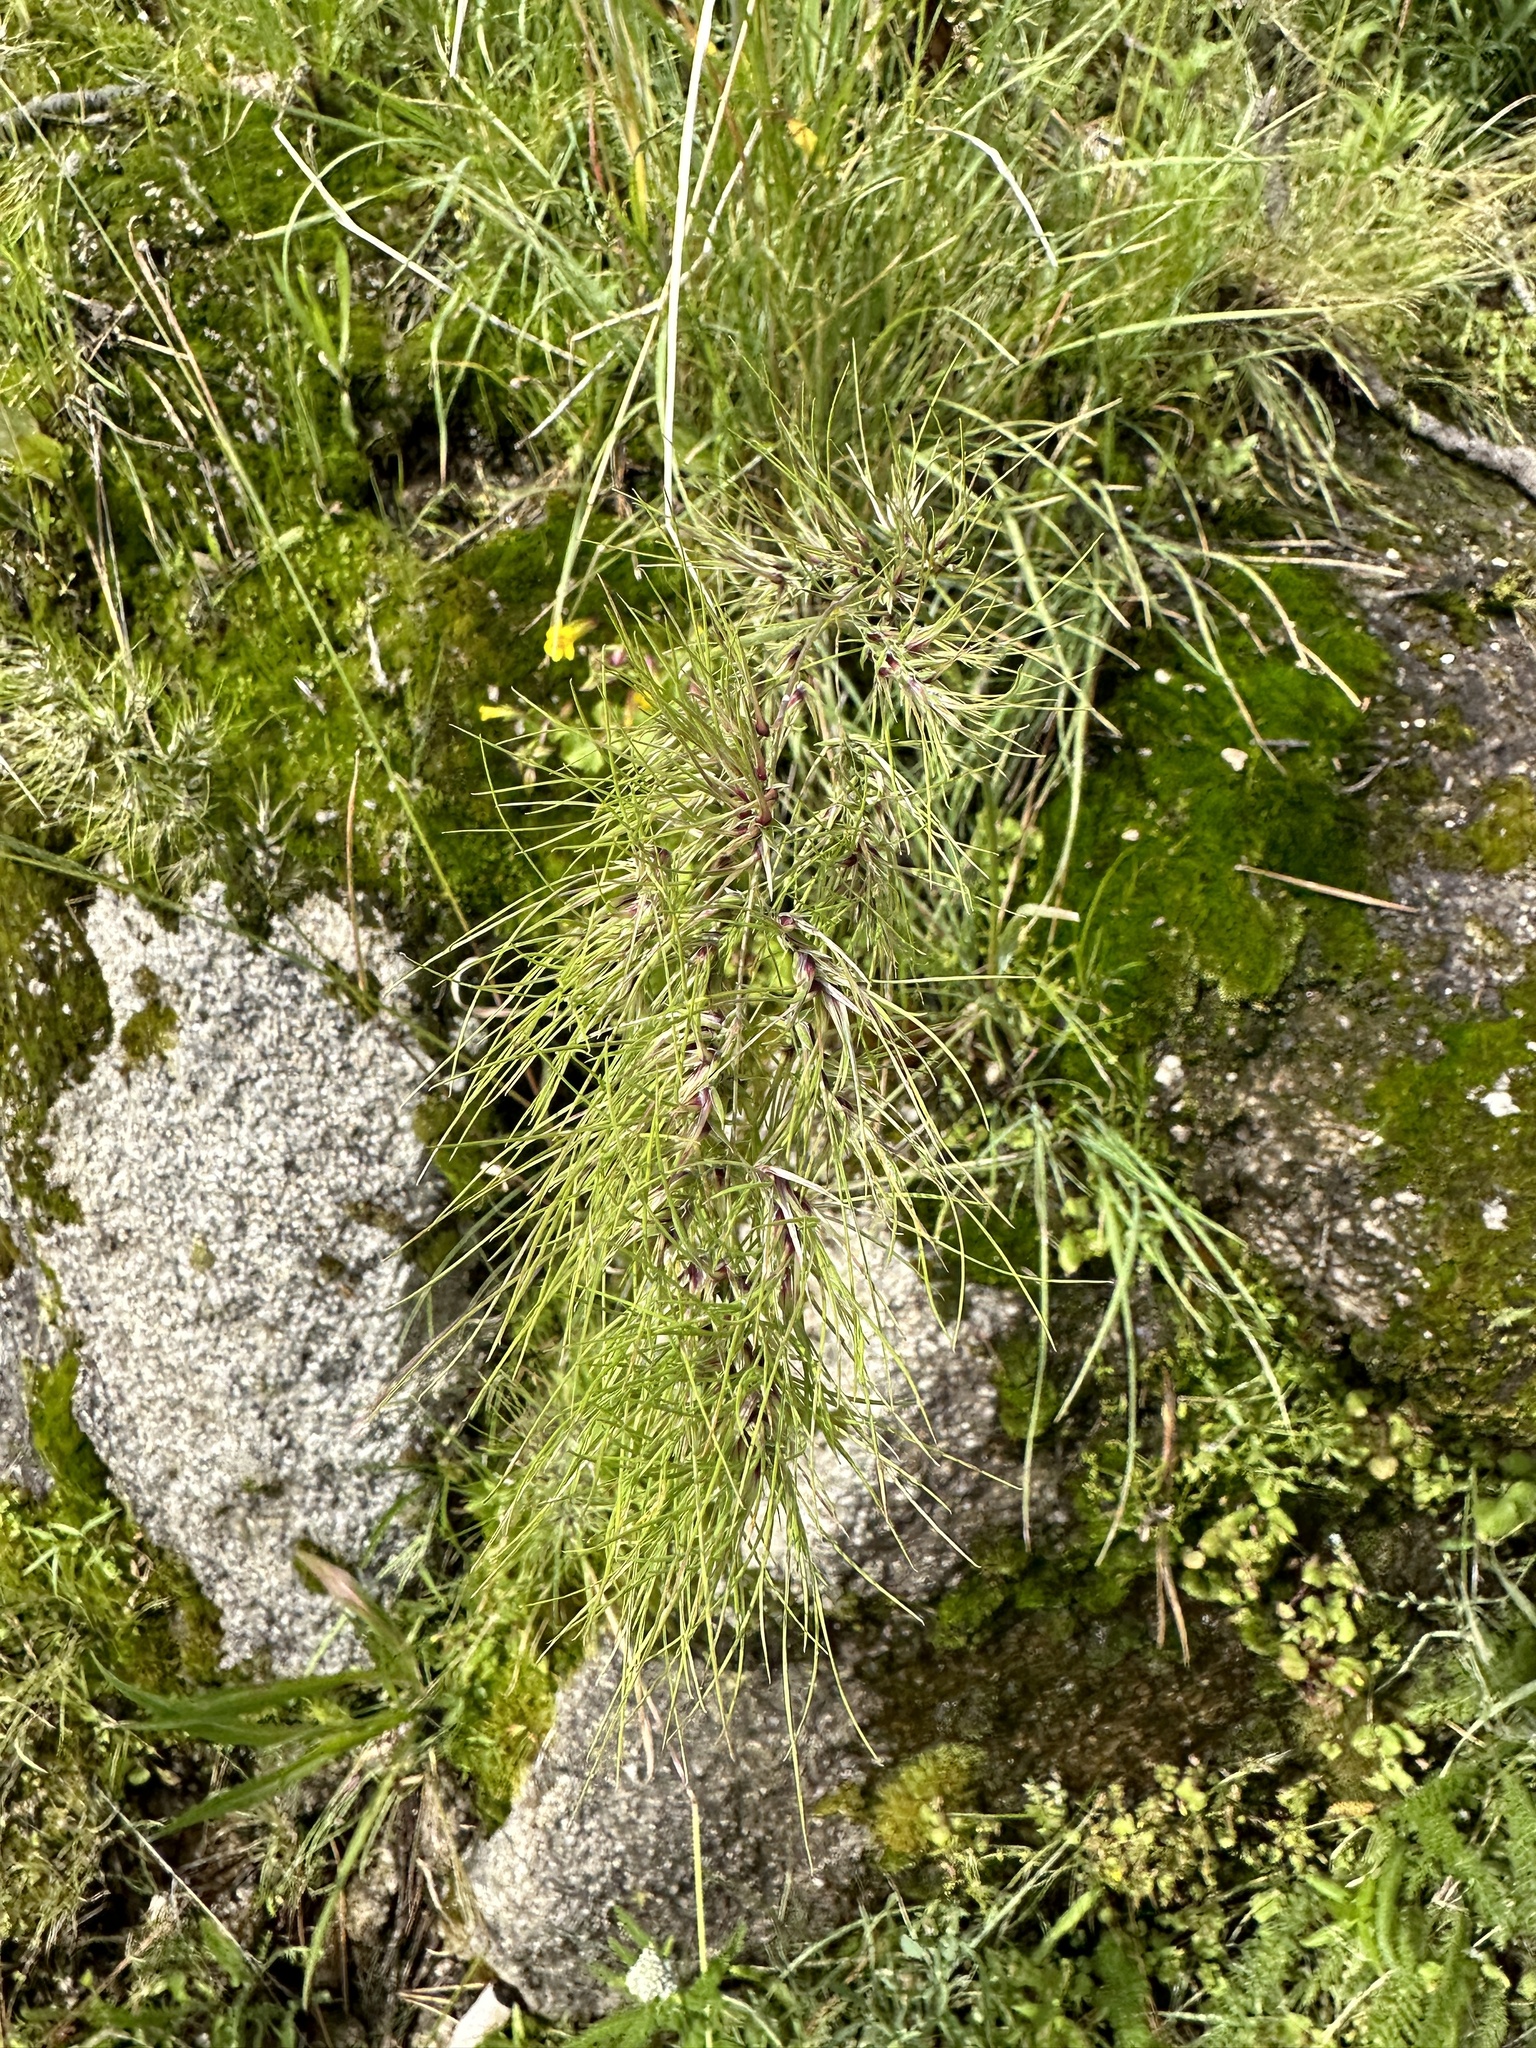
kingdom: Plantae
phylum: Tracheophyta
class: Liliopsida
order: Poales
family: Poaceae
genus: Poa
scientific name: Poa bulbosa
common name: Bulbous bluegrass
